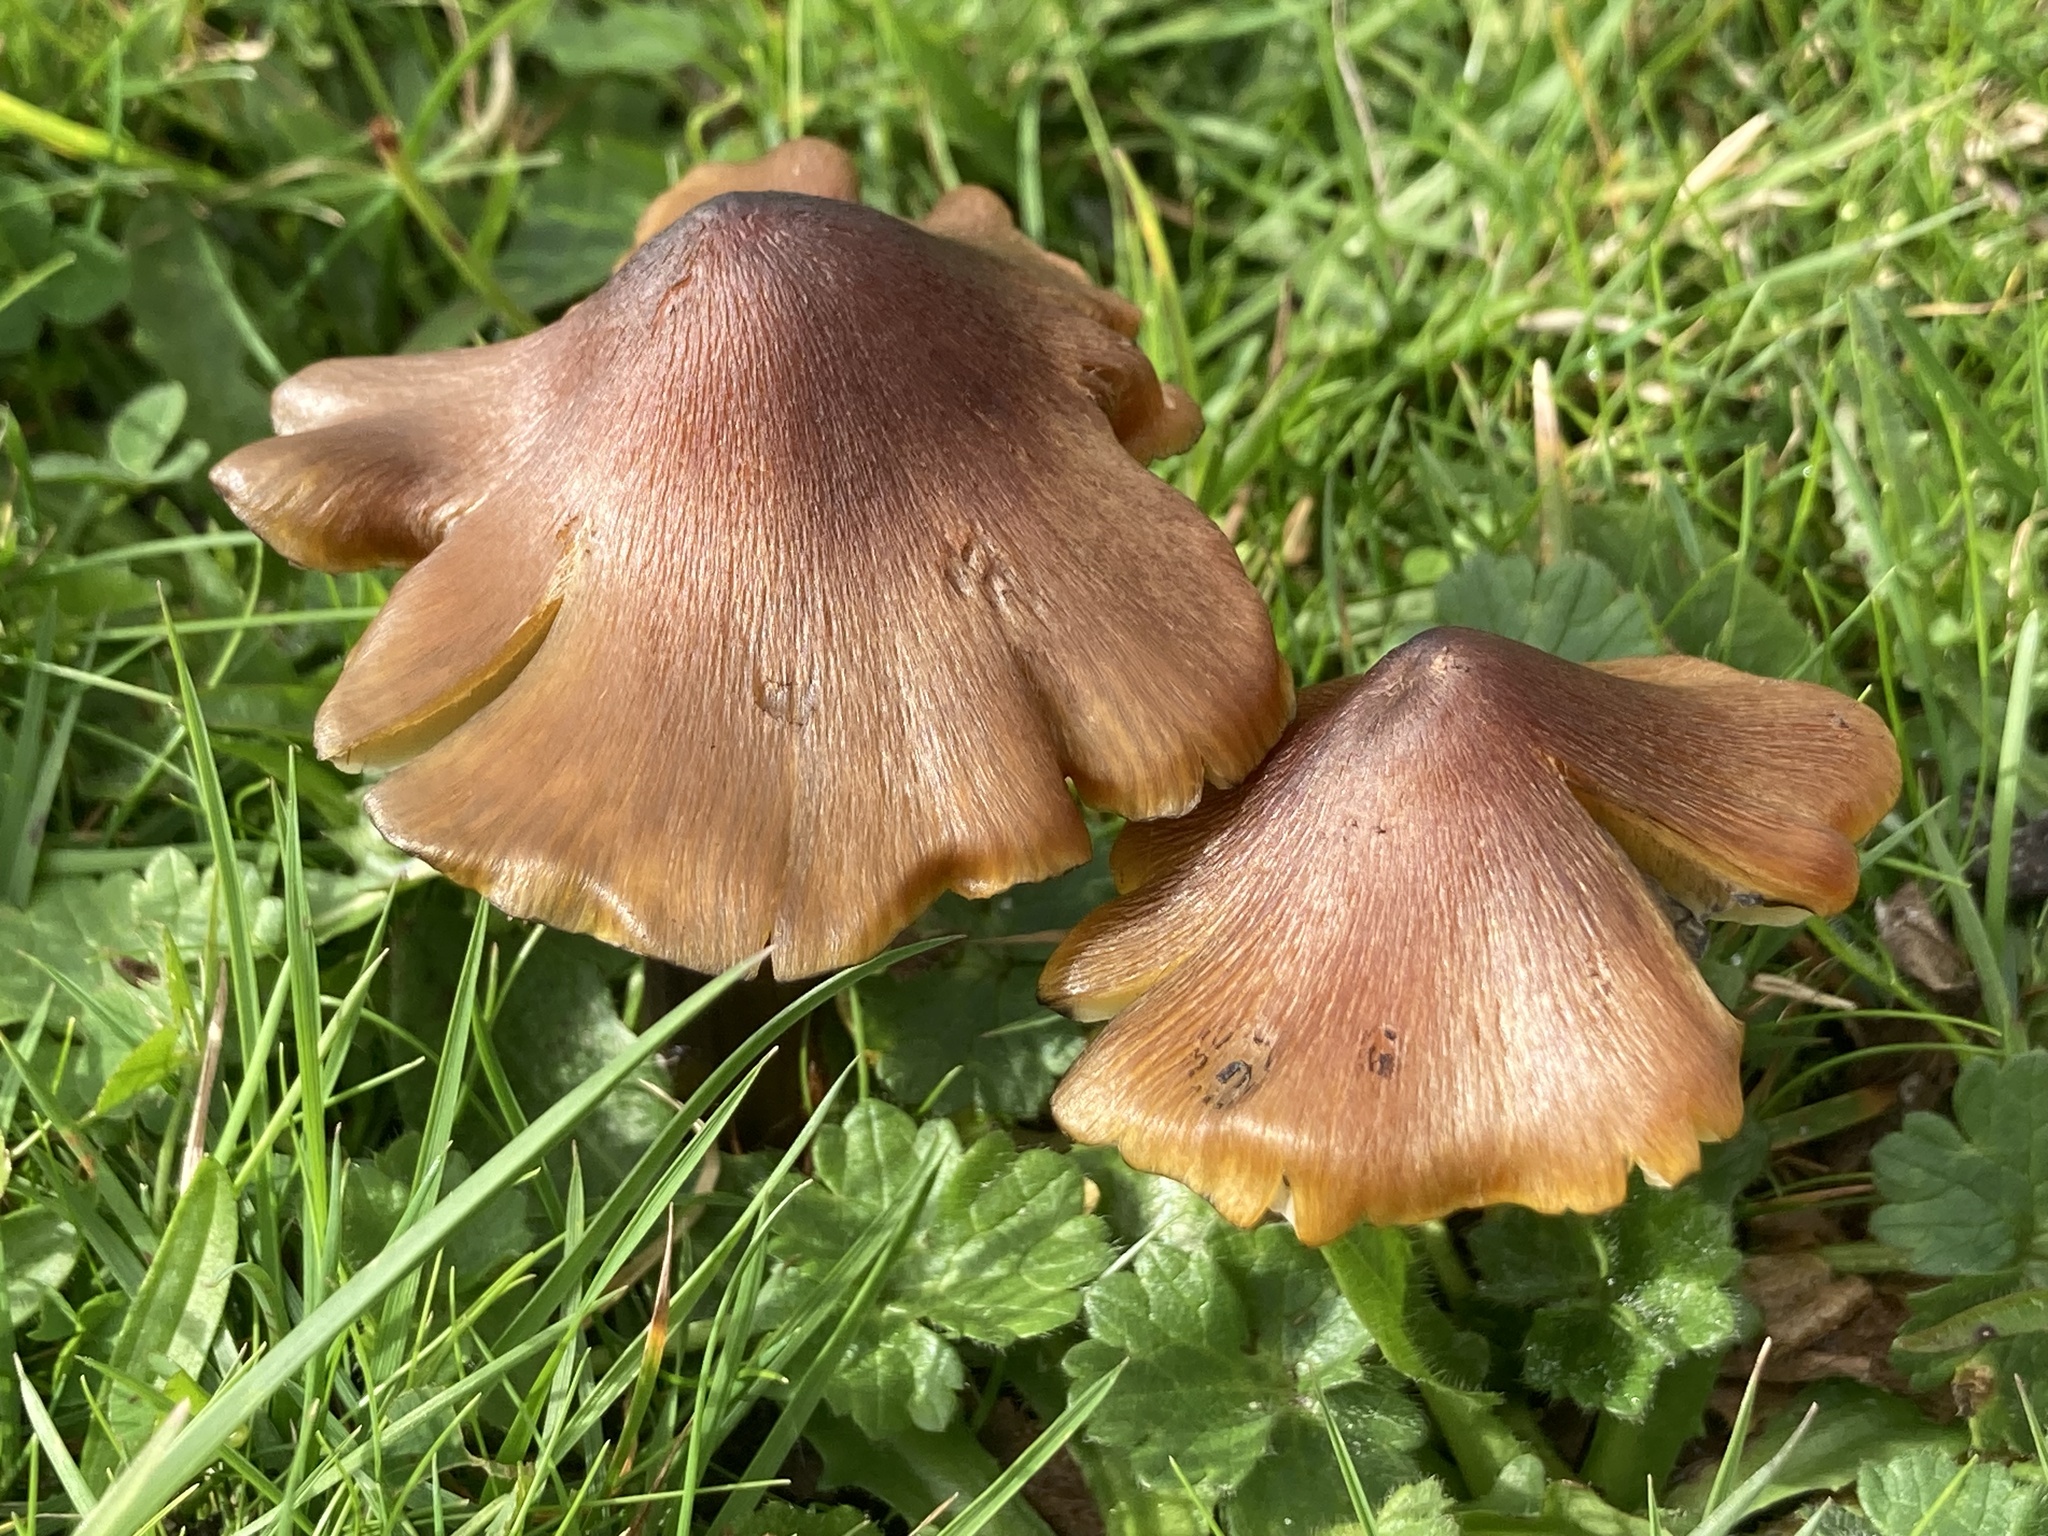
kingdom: Fungi
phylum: Basidiomycota
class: Agaricomycetes
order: Agaricales
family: Hygrophoraceae
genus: Hygrocybe
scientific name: Hygrocybe nigrescens
